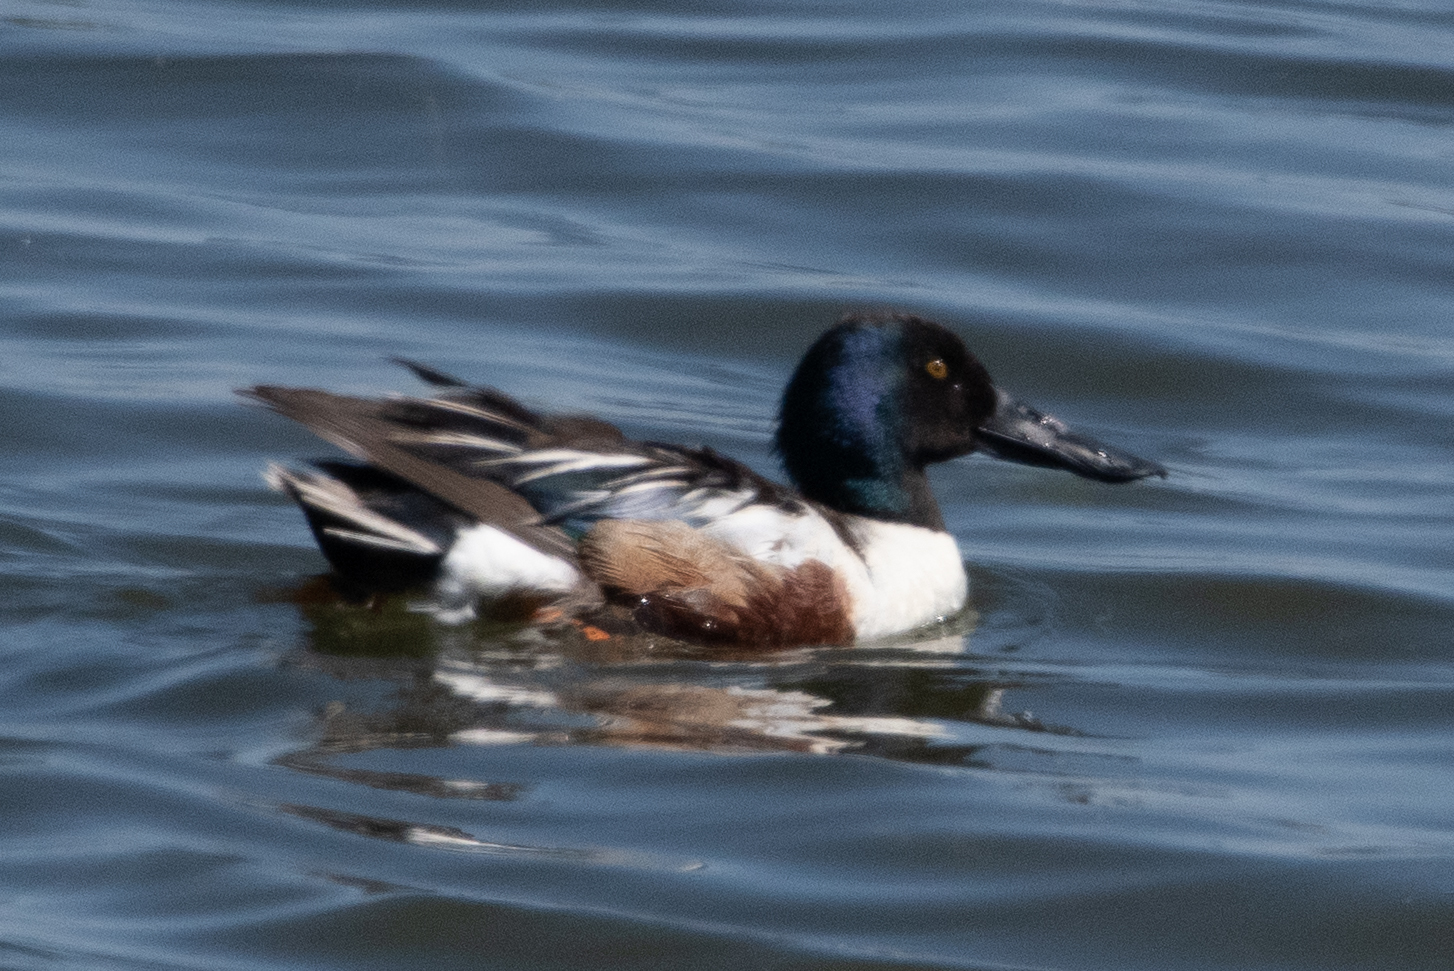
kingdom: Animalia
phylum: Chordata
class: Aves
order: Anseriformes
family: Anatidae
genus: Spatula
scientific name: Spatula clypeata
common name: Northern shoveler
